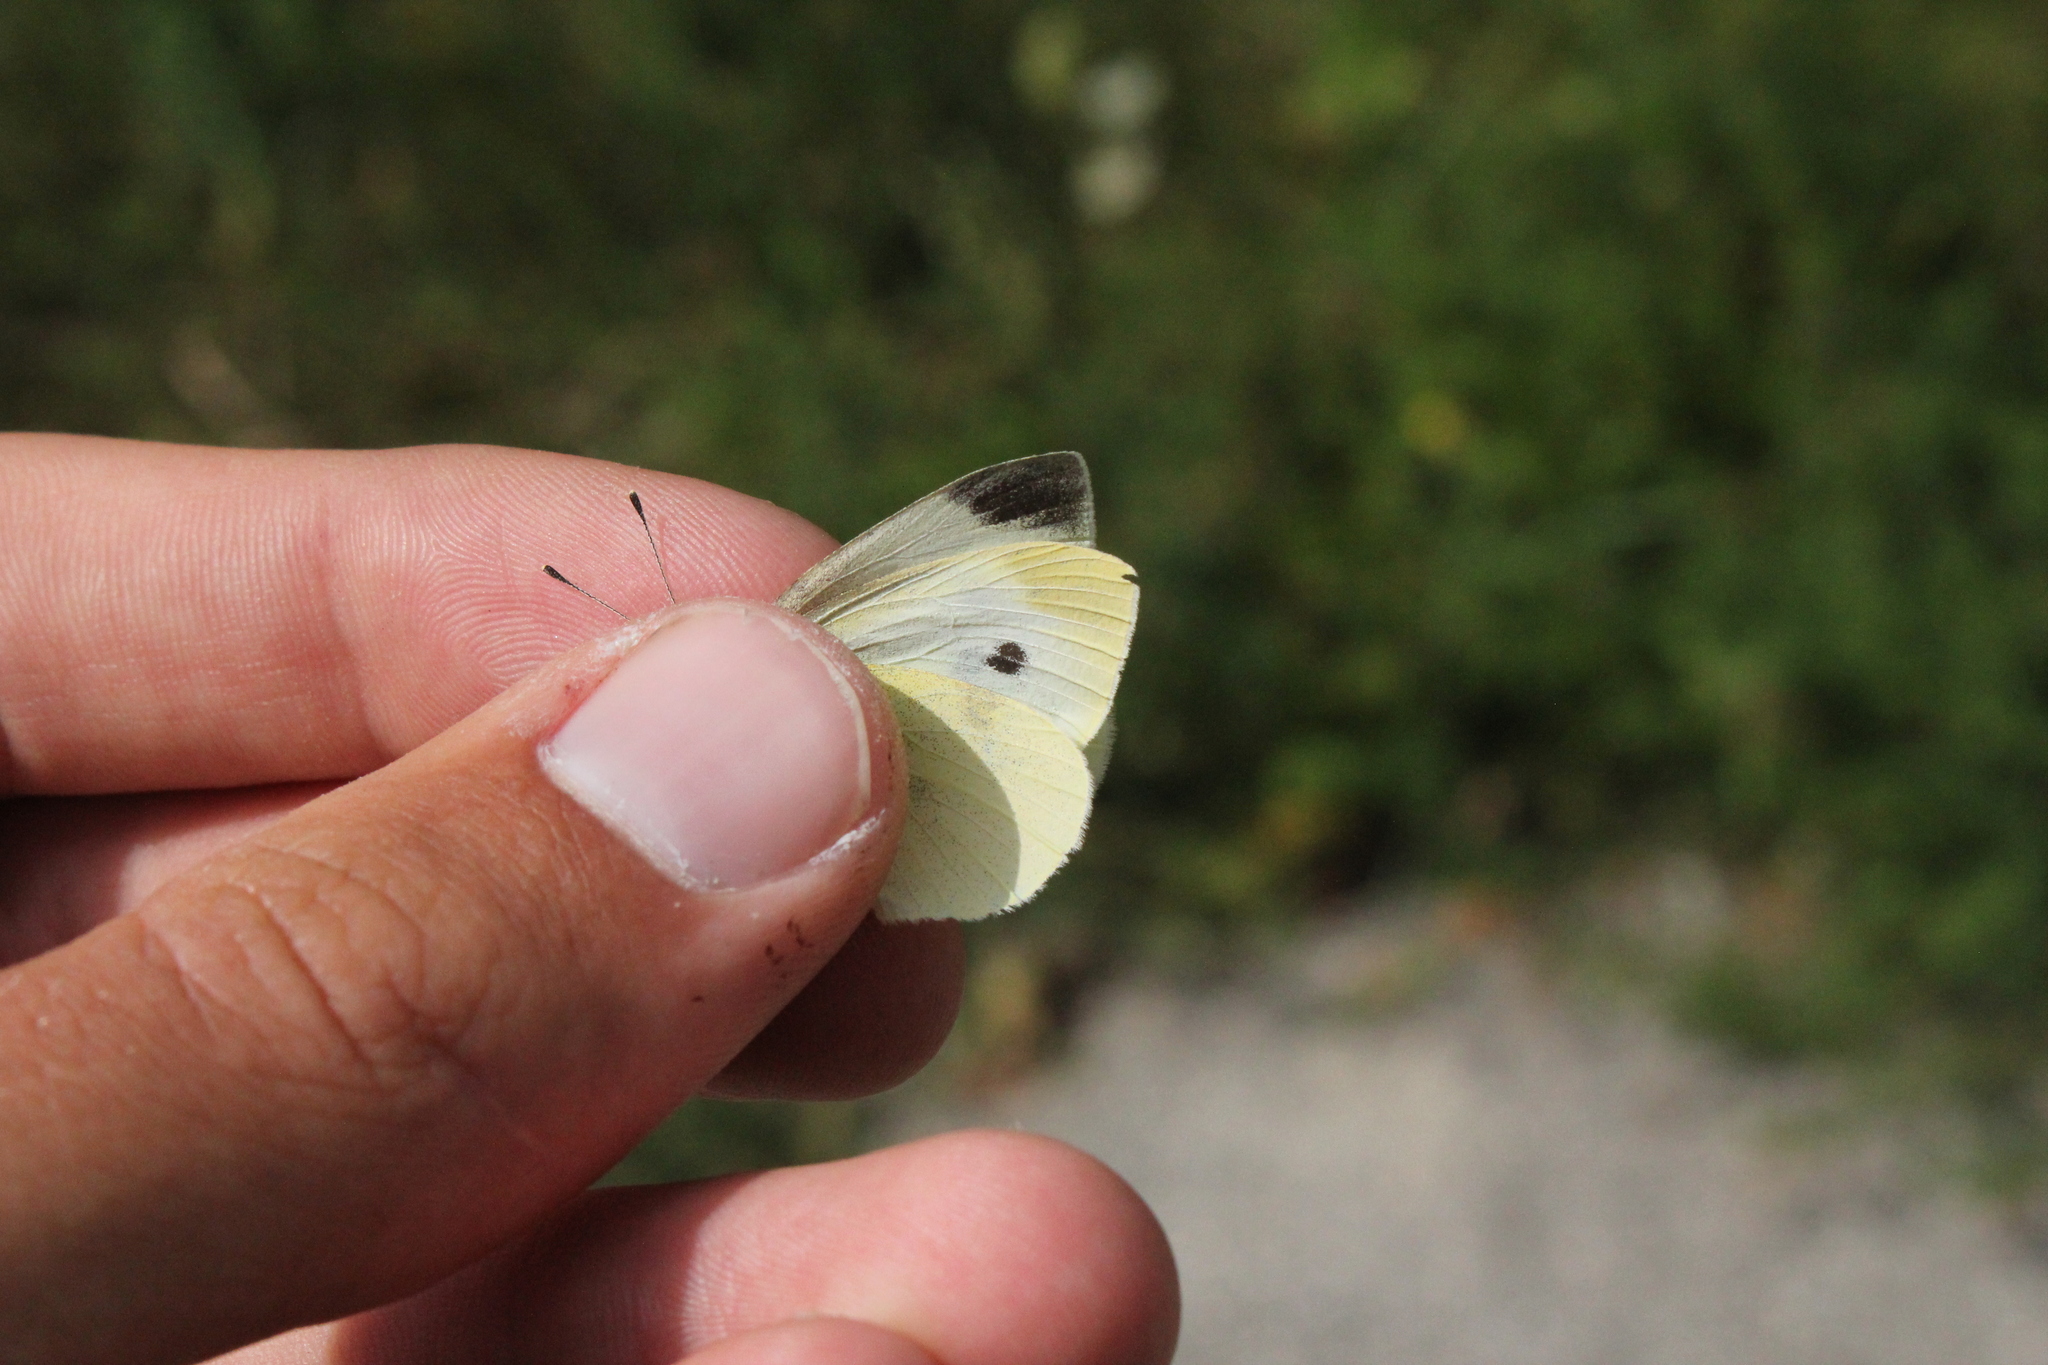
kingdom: Animalia
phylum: Arthropoda
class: Insecta
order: Lepidoptera
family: Pieridae
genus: Pieris
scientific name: Pieris rapae
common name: Small white
